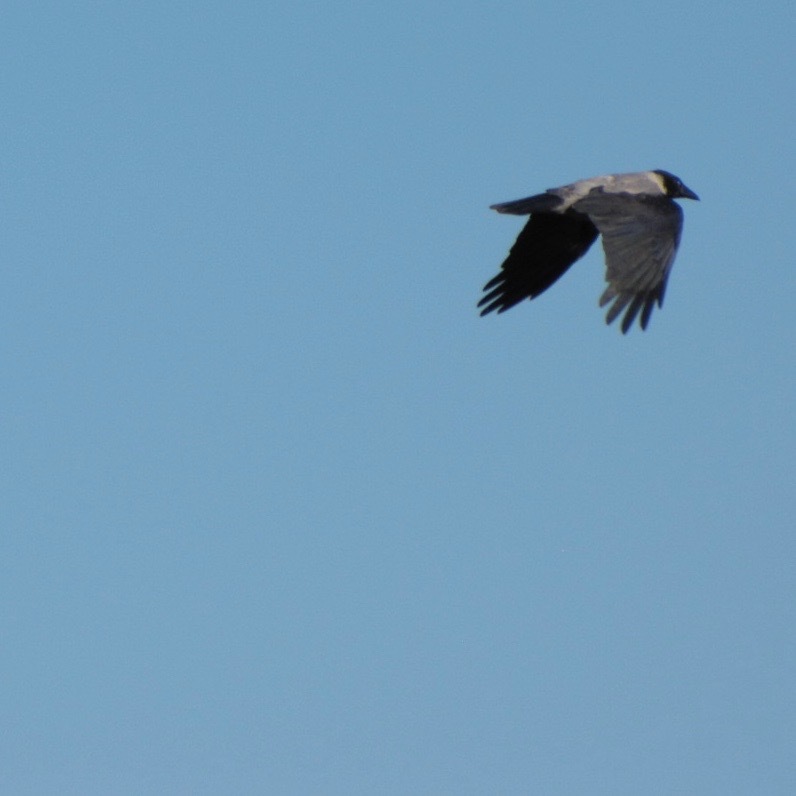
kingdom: Animalia
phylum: Chordata
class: Aves
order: Passeriformes
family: Corvidae
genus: Corvus
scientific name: Corvus cornix
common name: Hooded crow
